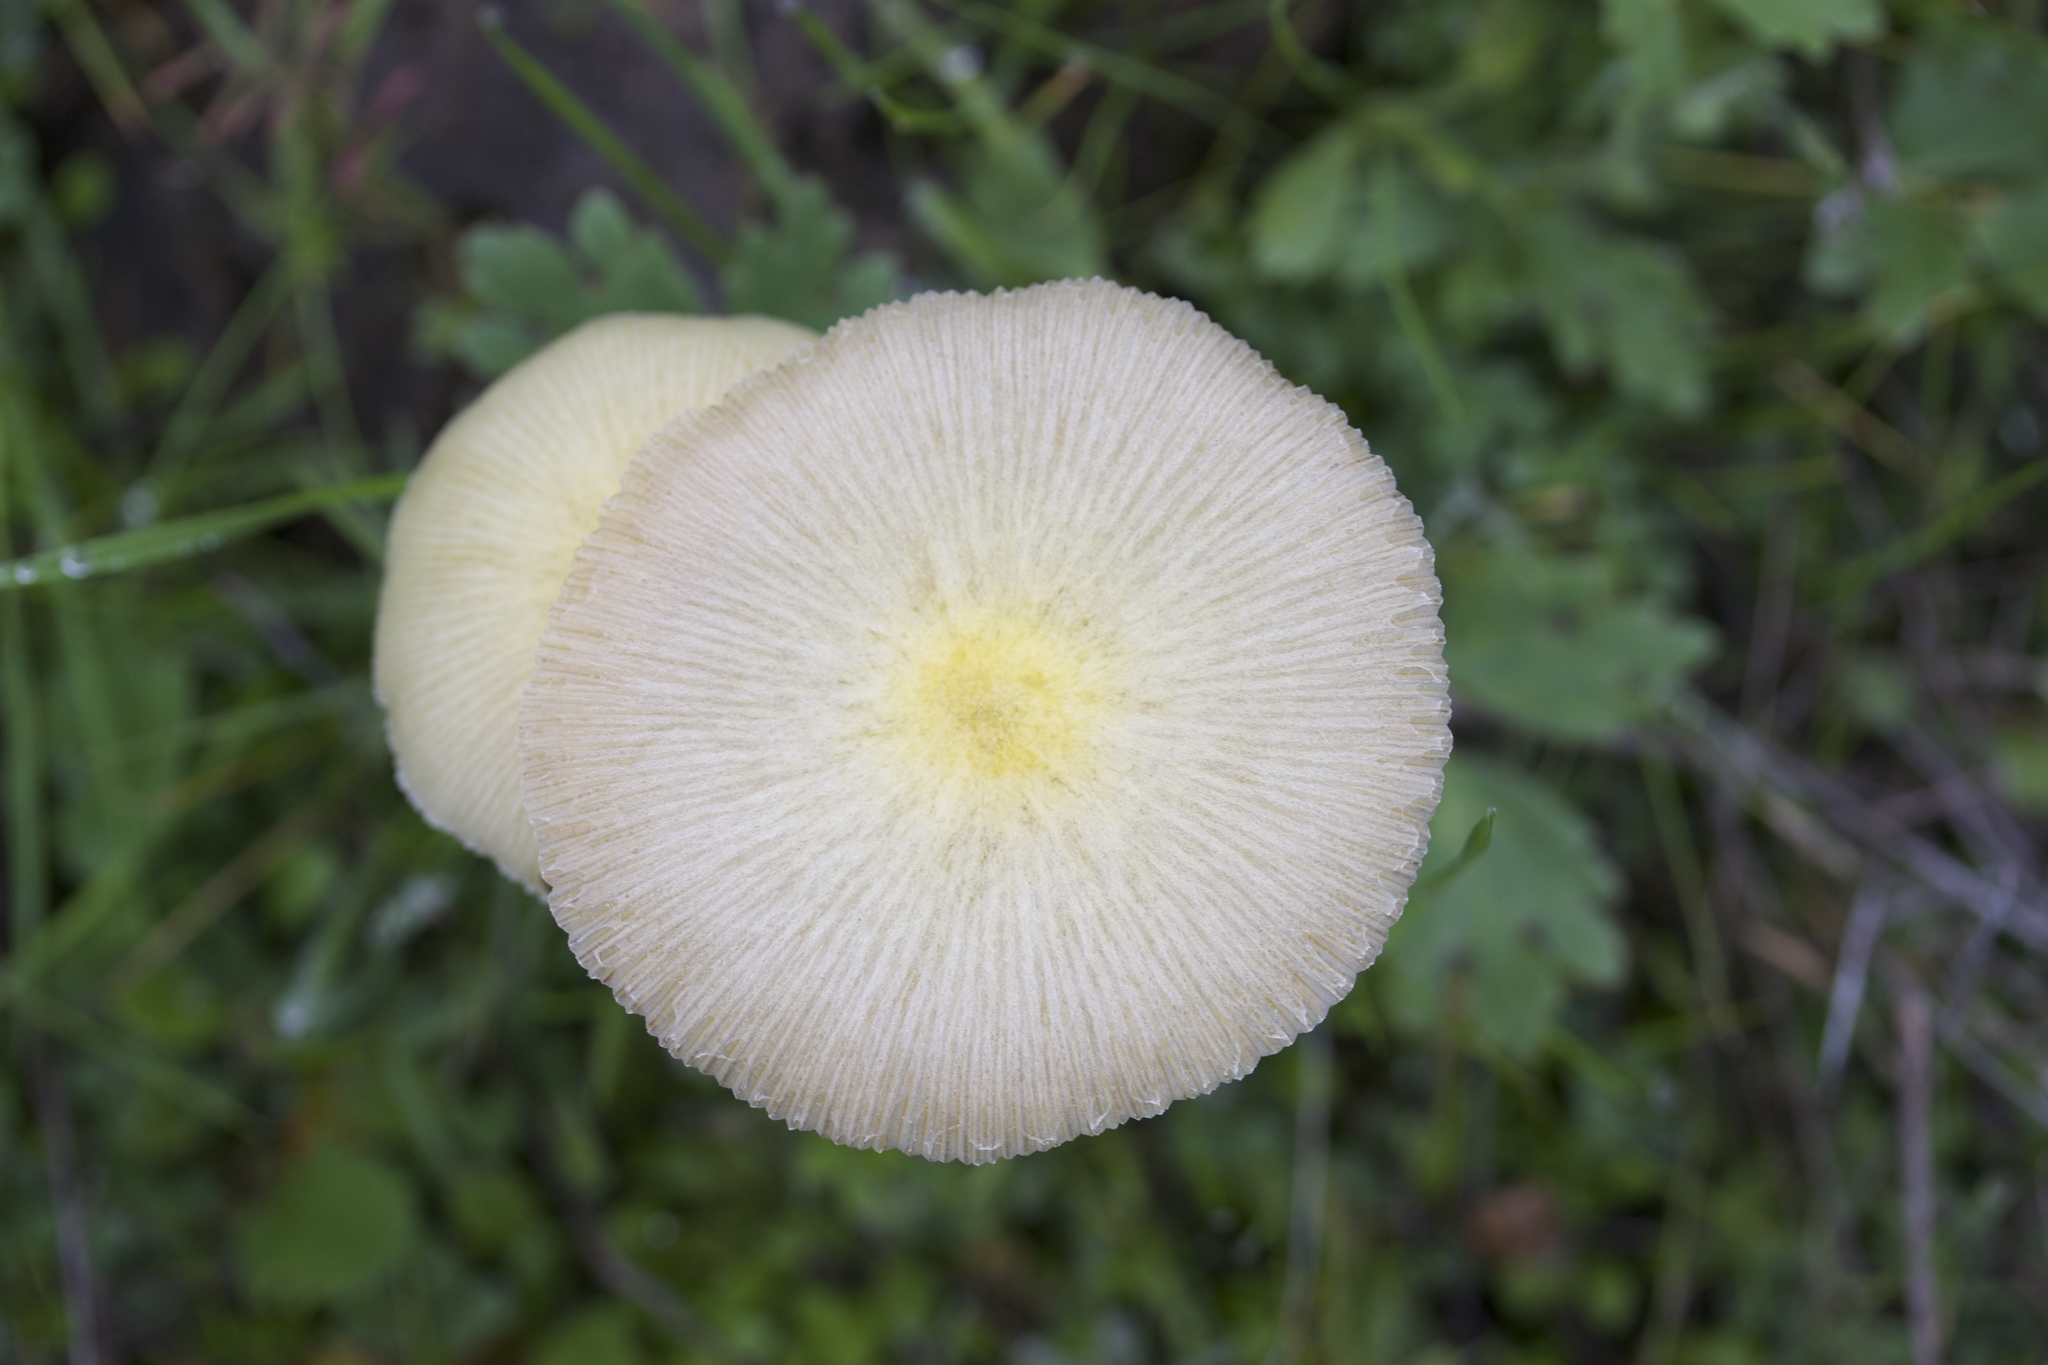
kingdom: Fungi
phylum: Basidiomycota
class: Agaricomycetes
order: Agaricales
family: Bolbitiaceae
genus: Bolbitius
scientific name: Bolbitius titubans
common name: Yellow fieldcap
